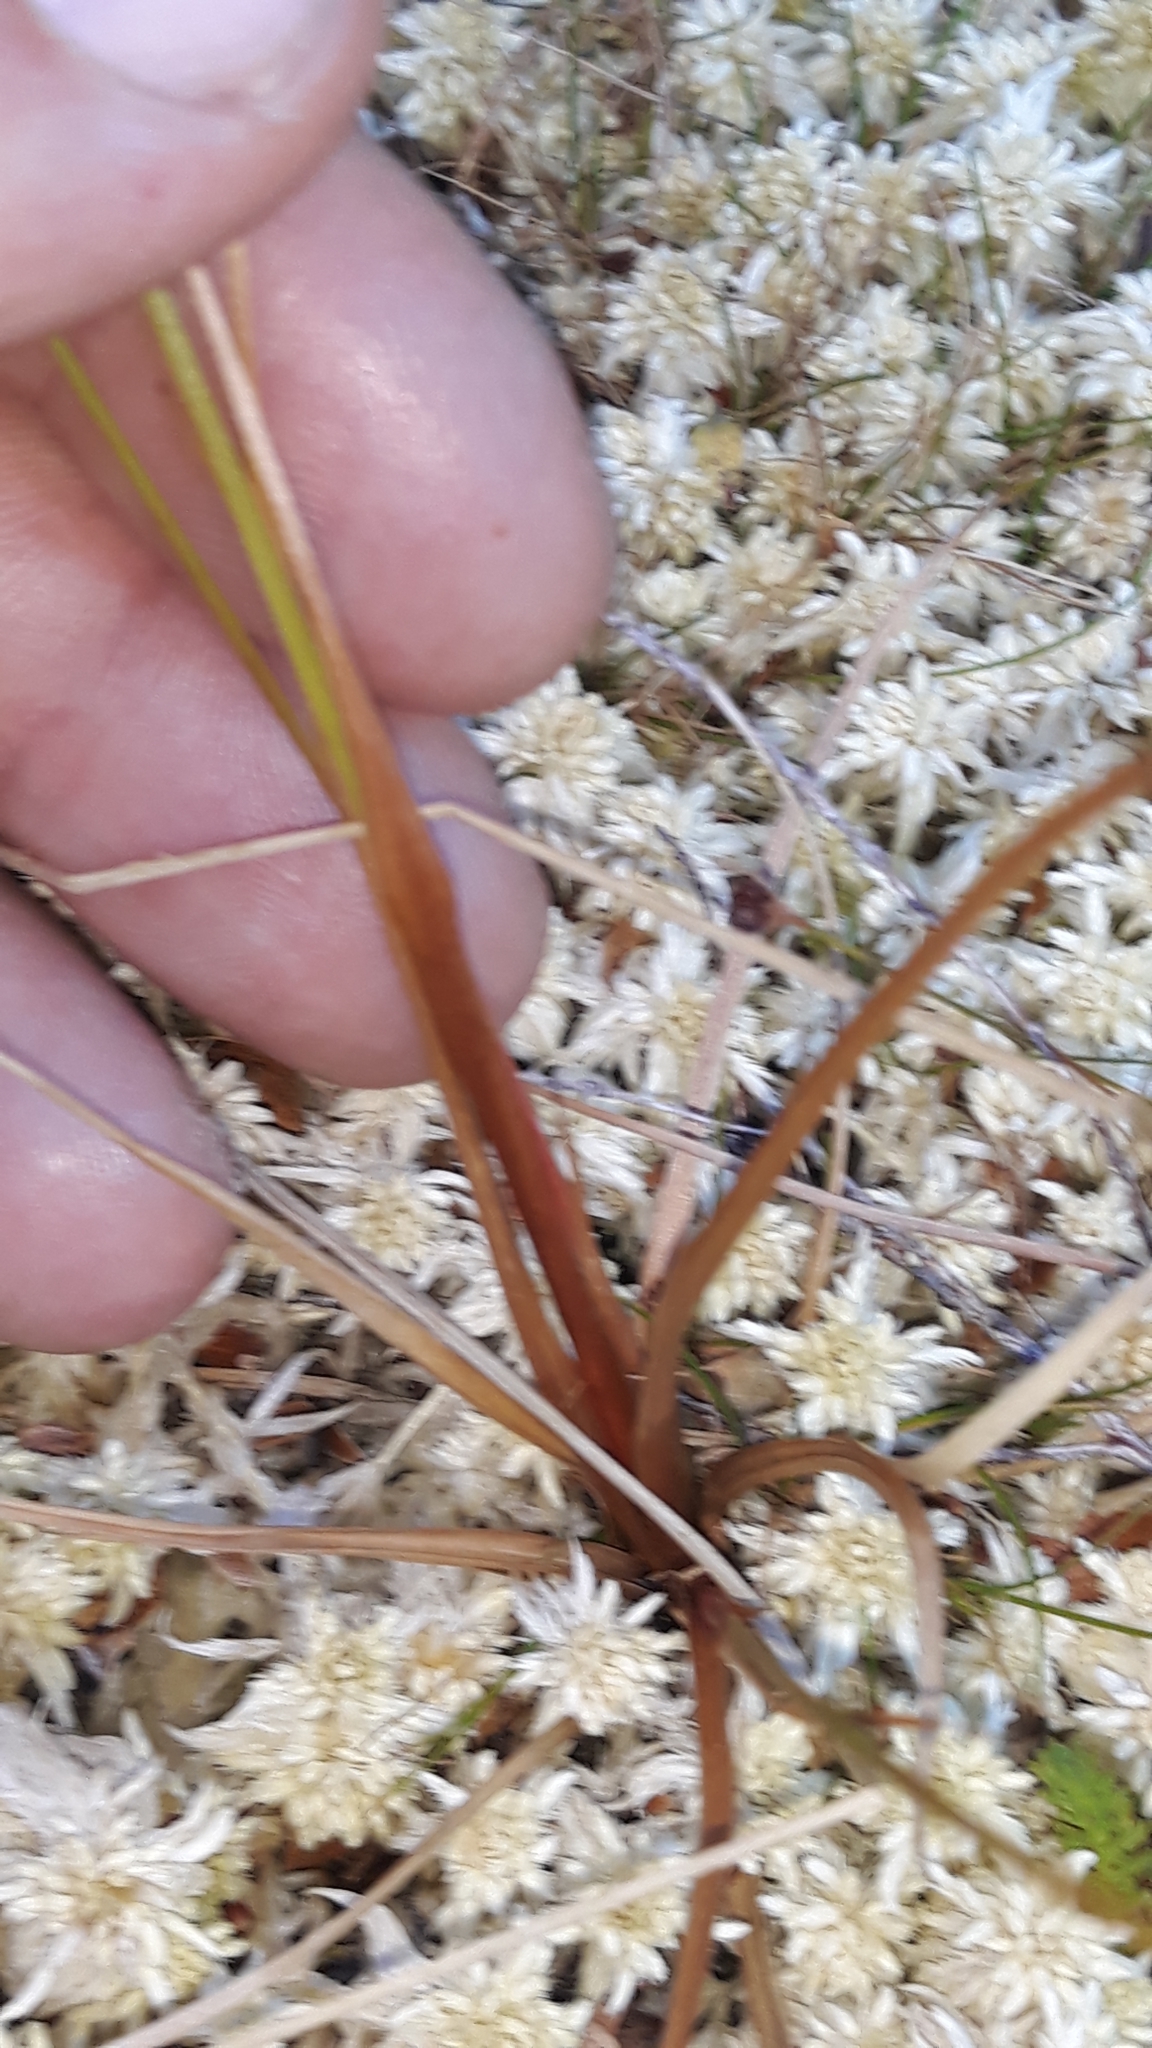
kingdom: Plantae
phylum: Tracheophyta
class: Liliopsida
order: Poales
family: Juncaceae
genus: Juncus
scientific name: Juncus articulatus
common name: Jointed rush
